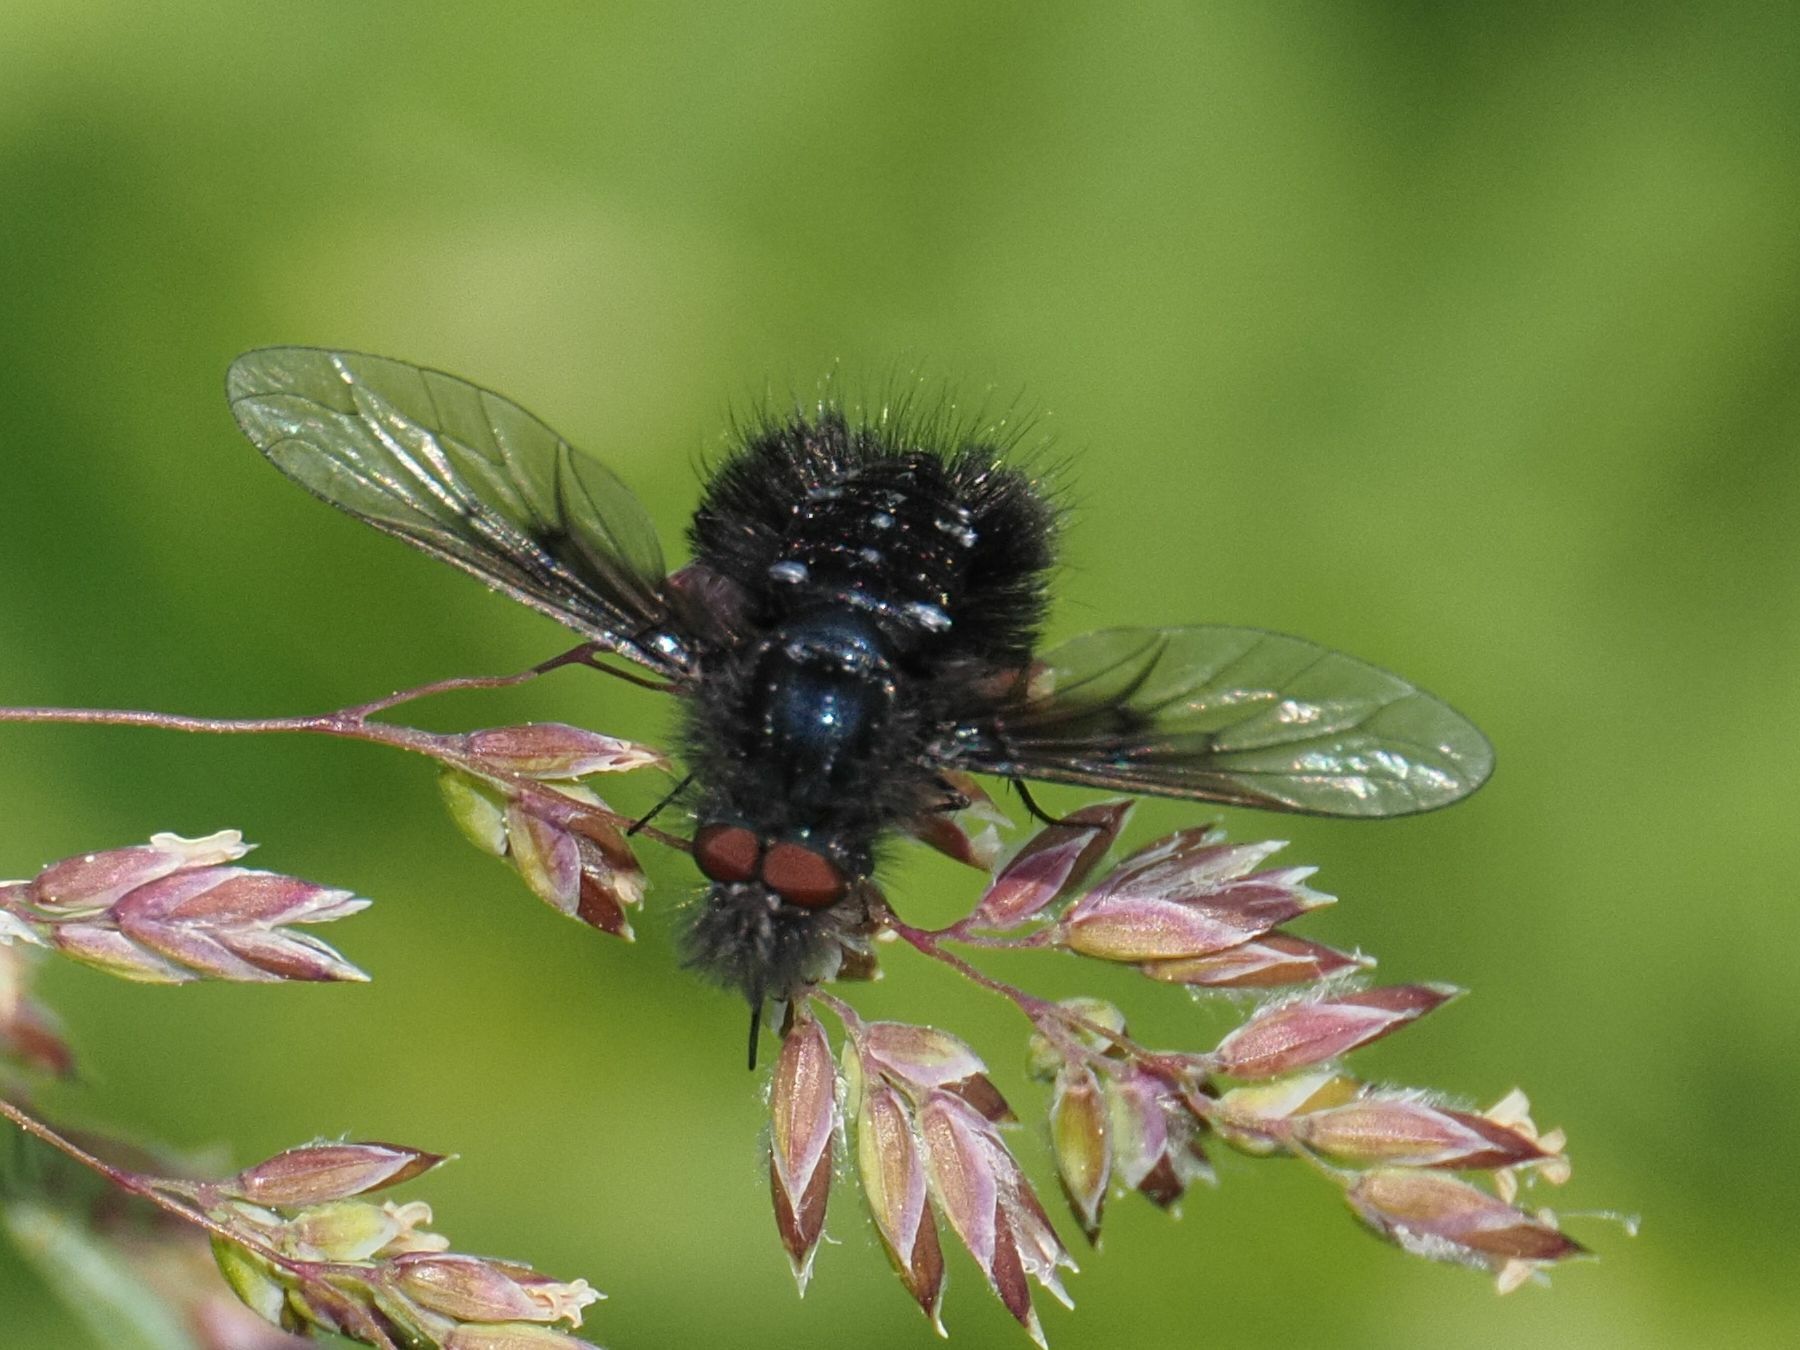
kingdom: Animalia
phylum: Arthropoda
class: Insecta
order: Diptera
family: Bombyliidae
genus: Bombylella
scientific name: Bombylella atra
